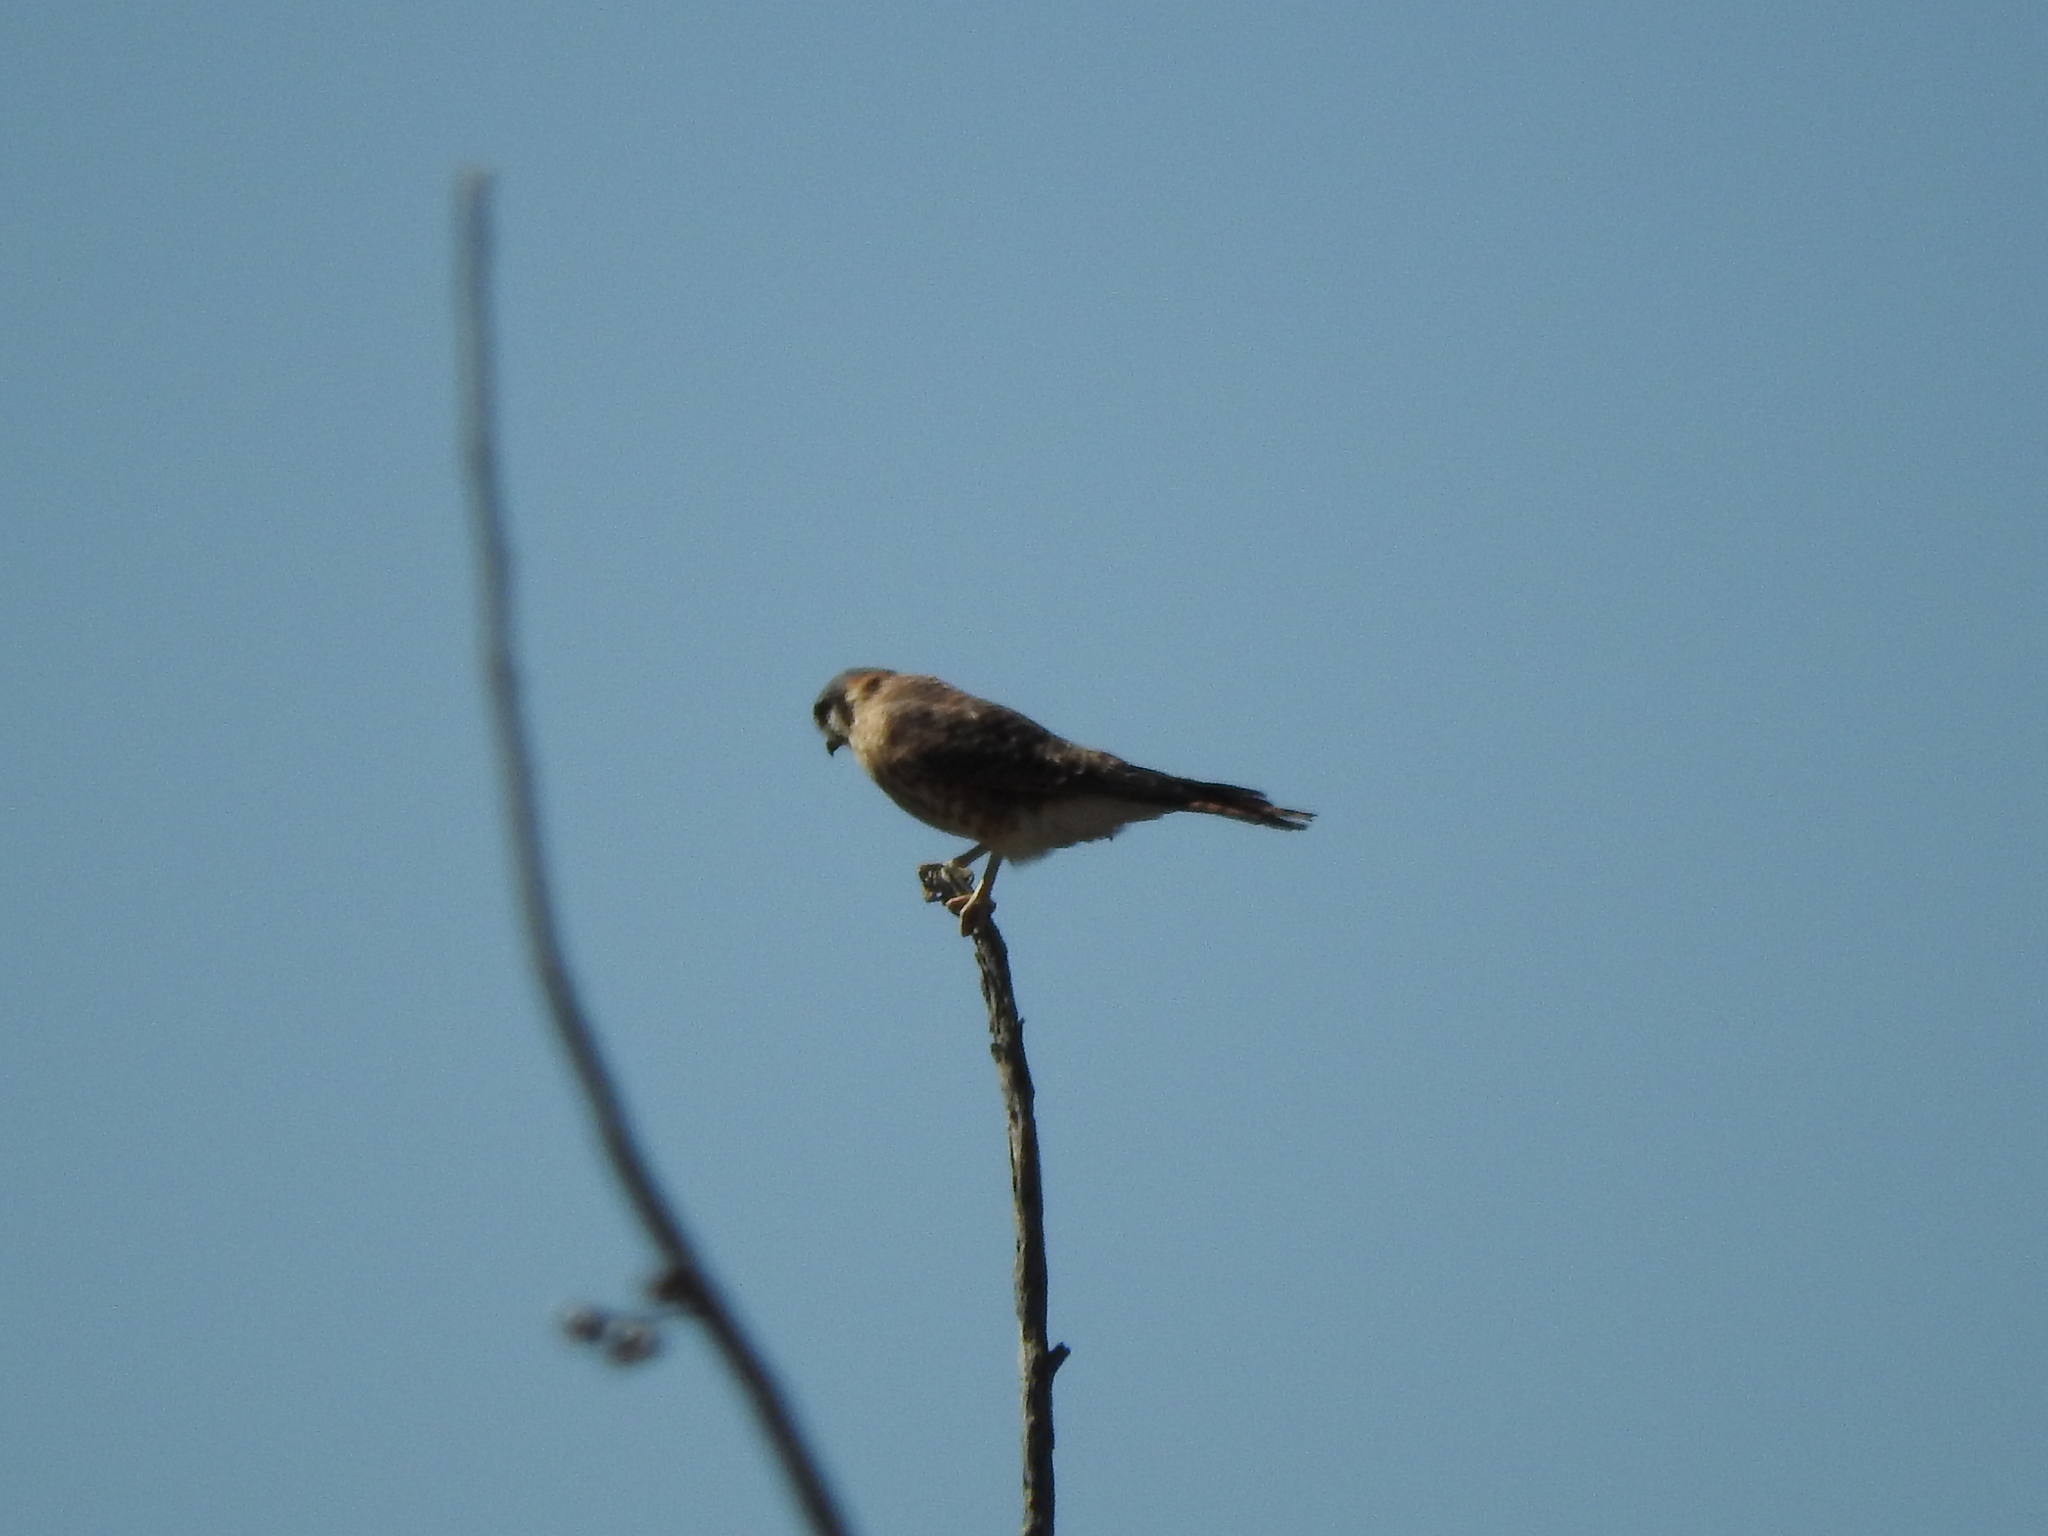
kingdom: Animalia
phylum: Chordata
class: Aves
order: Falconiformes
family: Falconidae
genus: Falco
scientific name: Falco sparverius
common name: American kestrel
